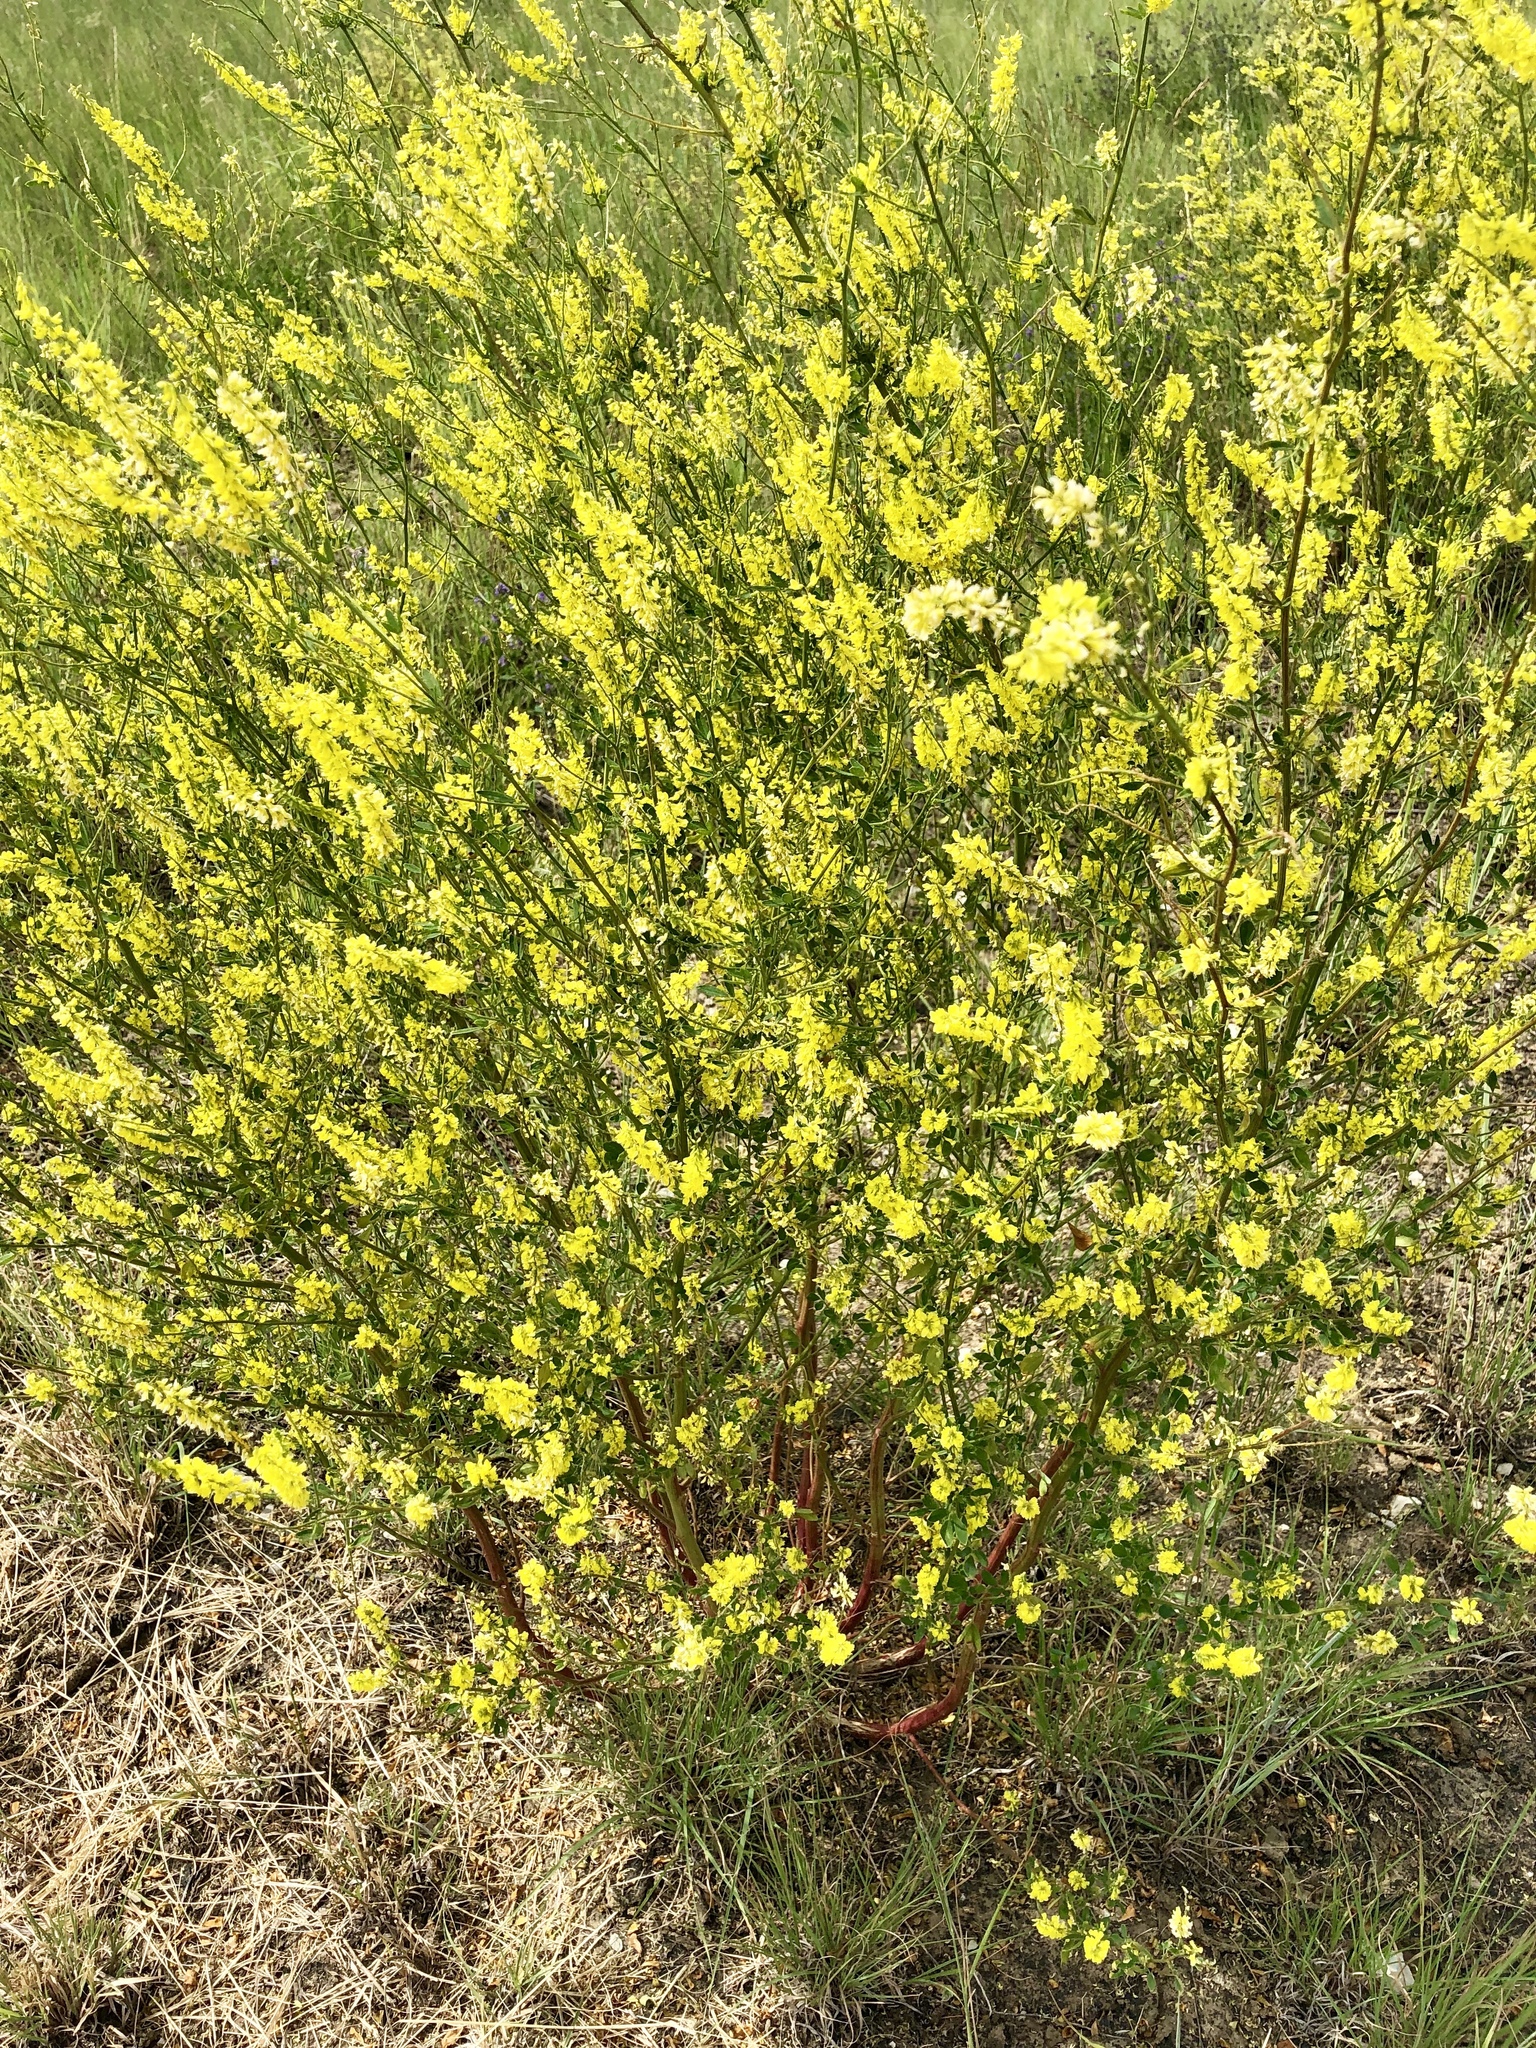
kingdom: Plantae
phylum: Tracheophyta
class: Magnoliopsida
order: Fabales
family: Fabaceae
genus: Melilotus
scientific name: Melilotus officinalis
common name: Sweetclover
